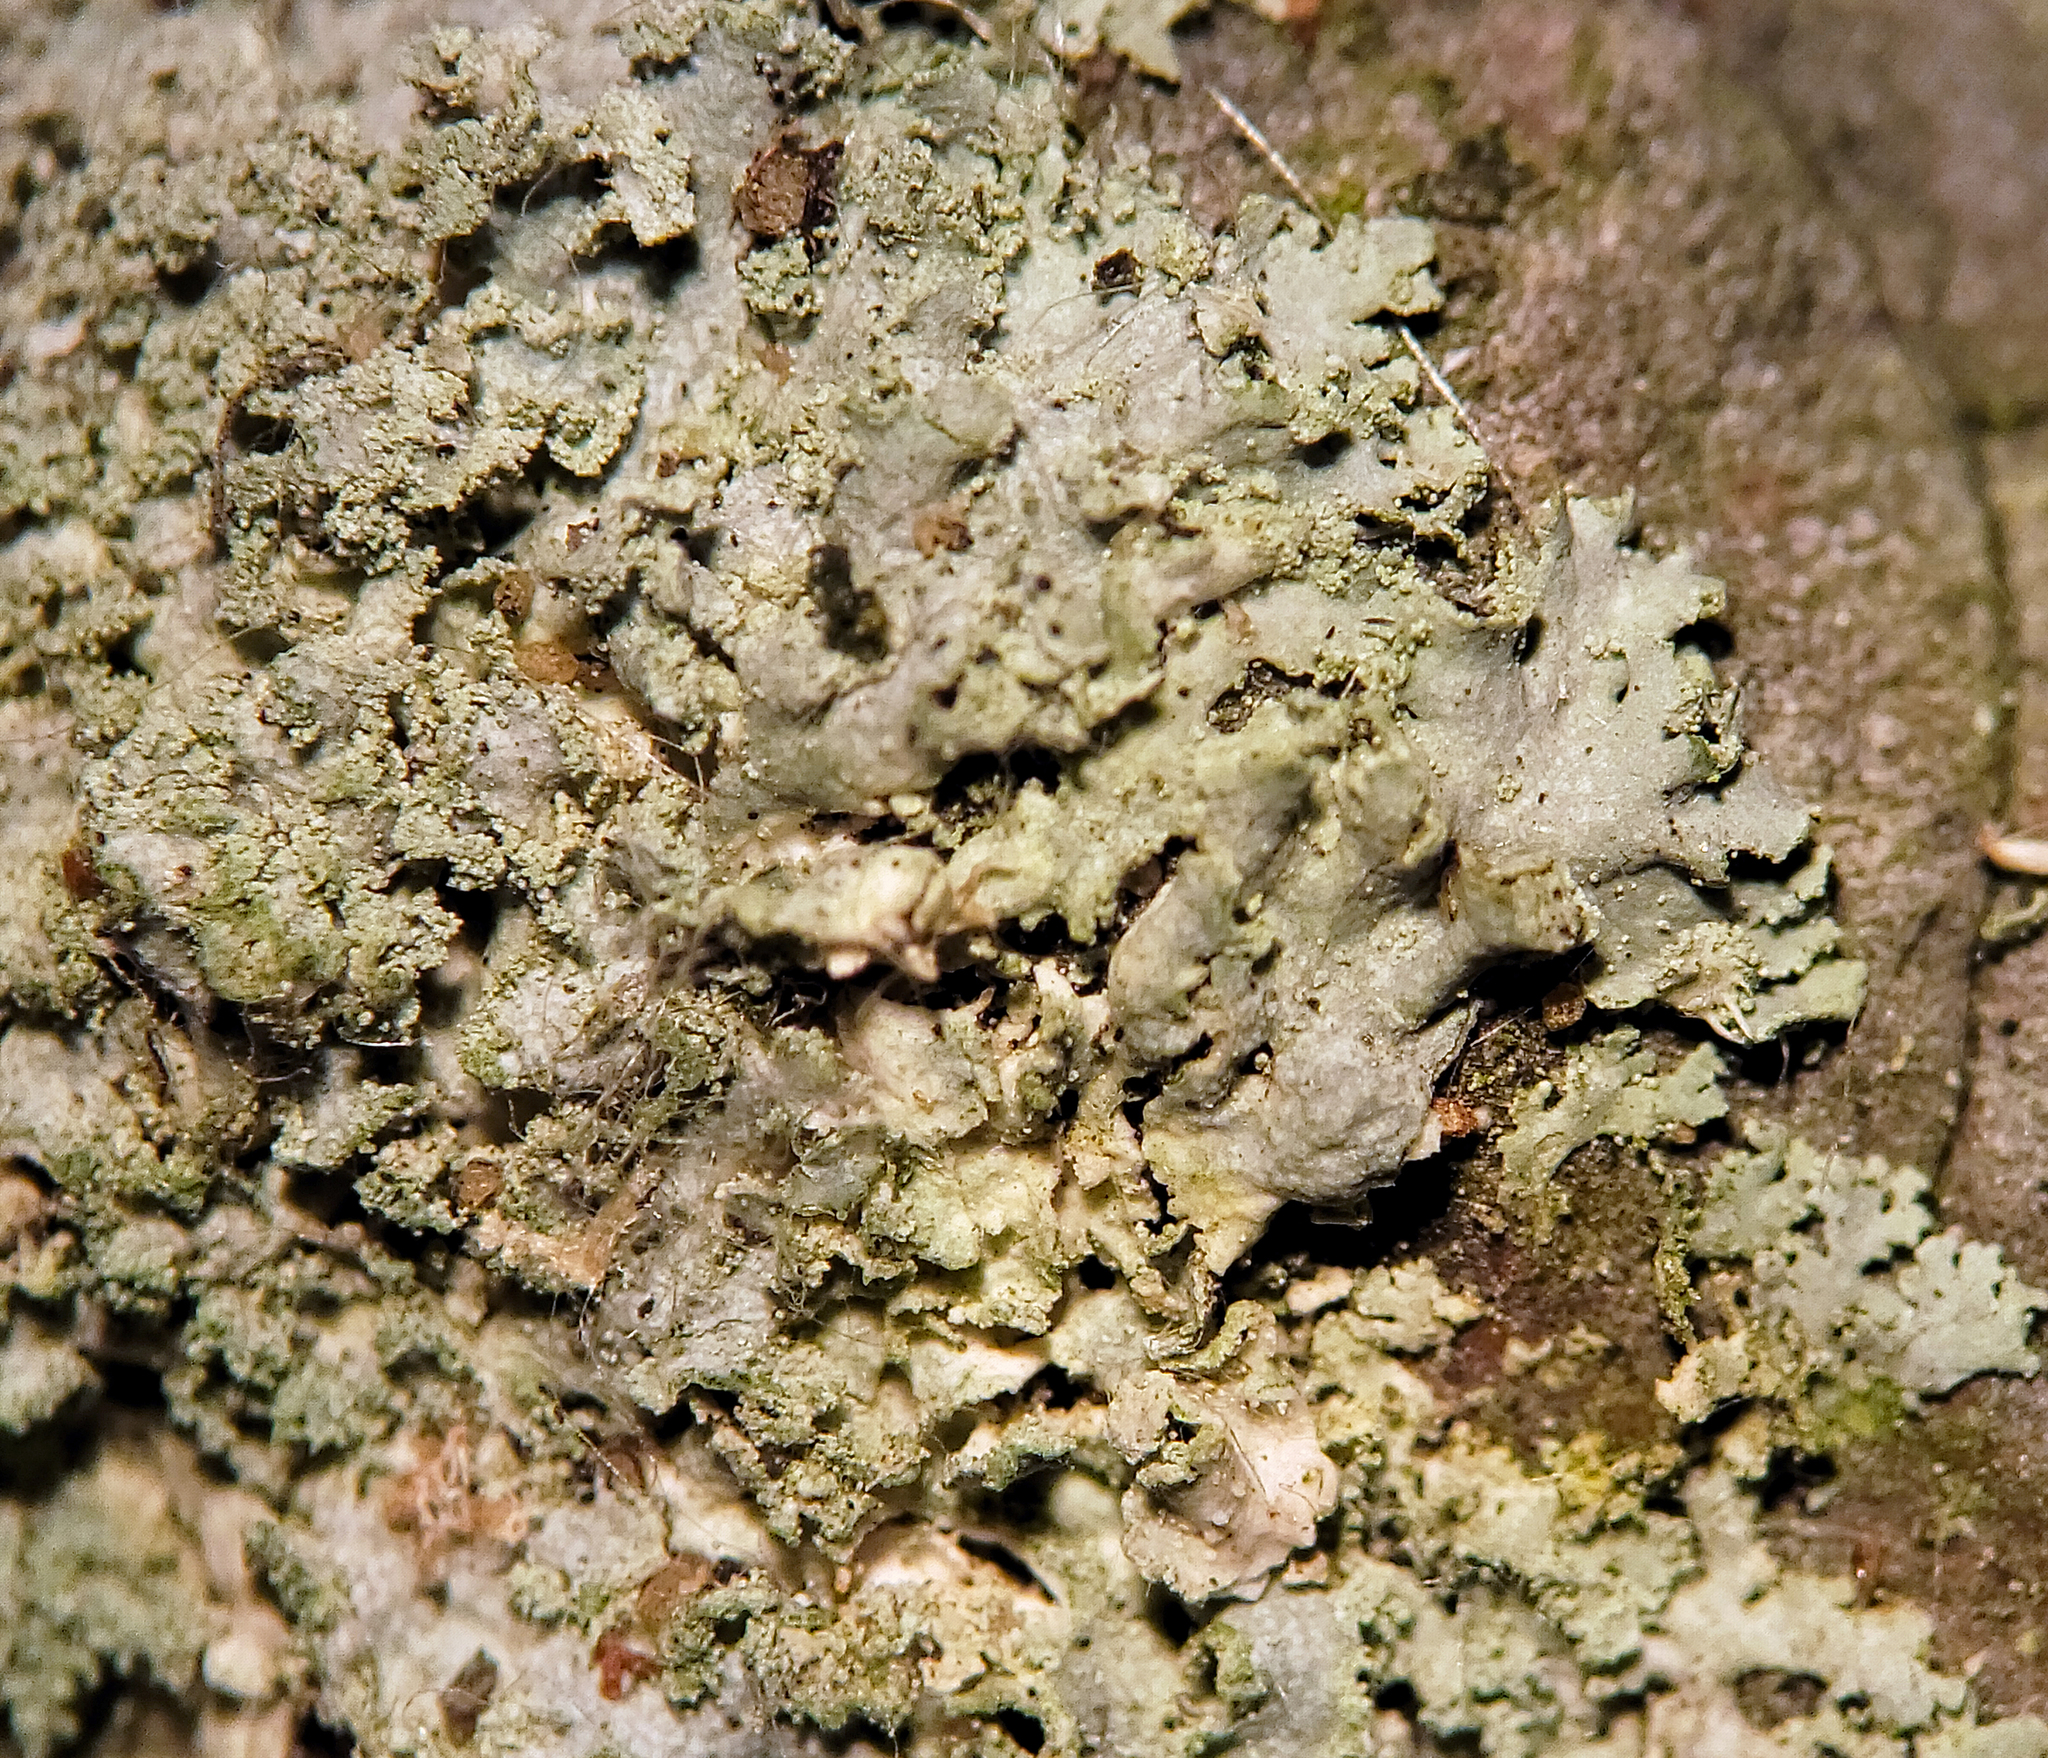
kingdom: Fungi
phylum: Ascomycota
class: Lecanoromycetes
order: Caliciales
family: Physciaceae
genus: Physcia
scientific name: Physcia millegrana
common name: Rosette lichen
